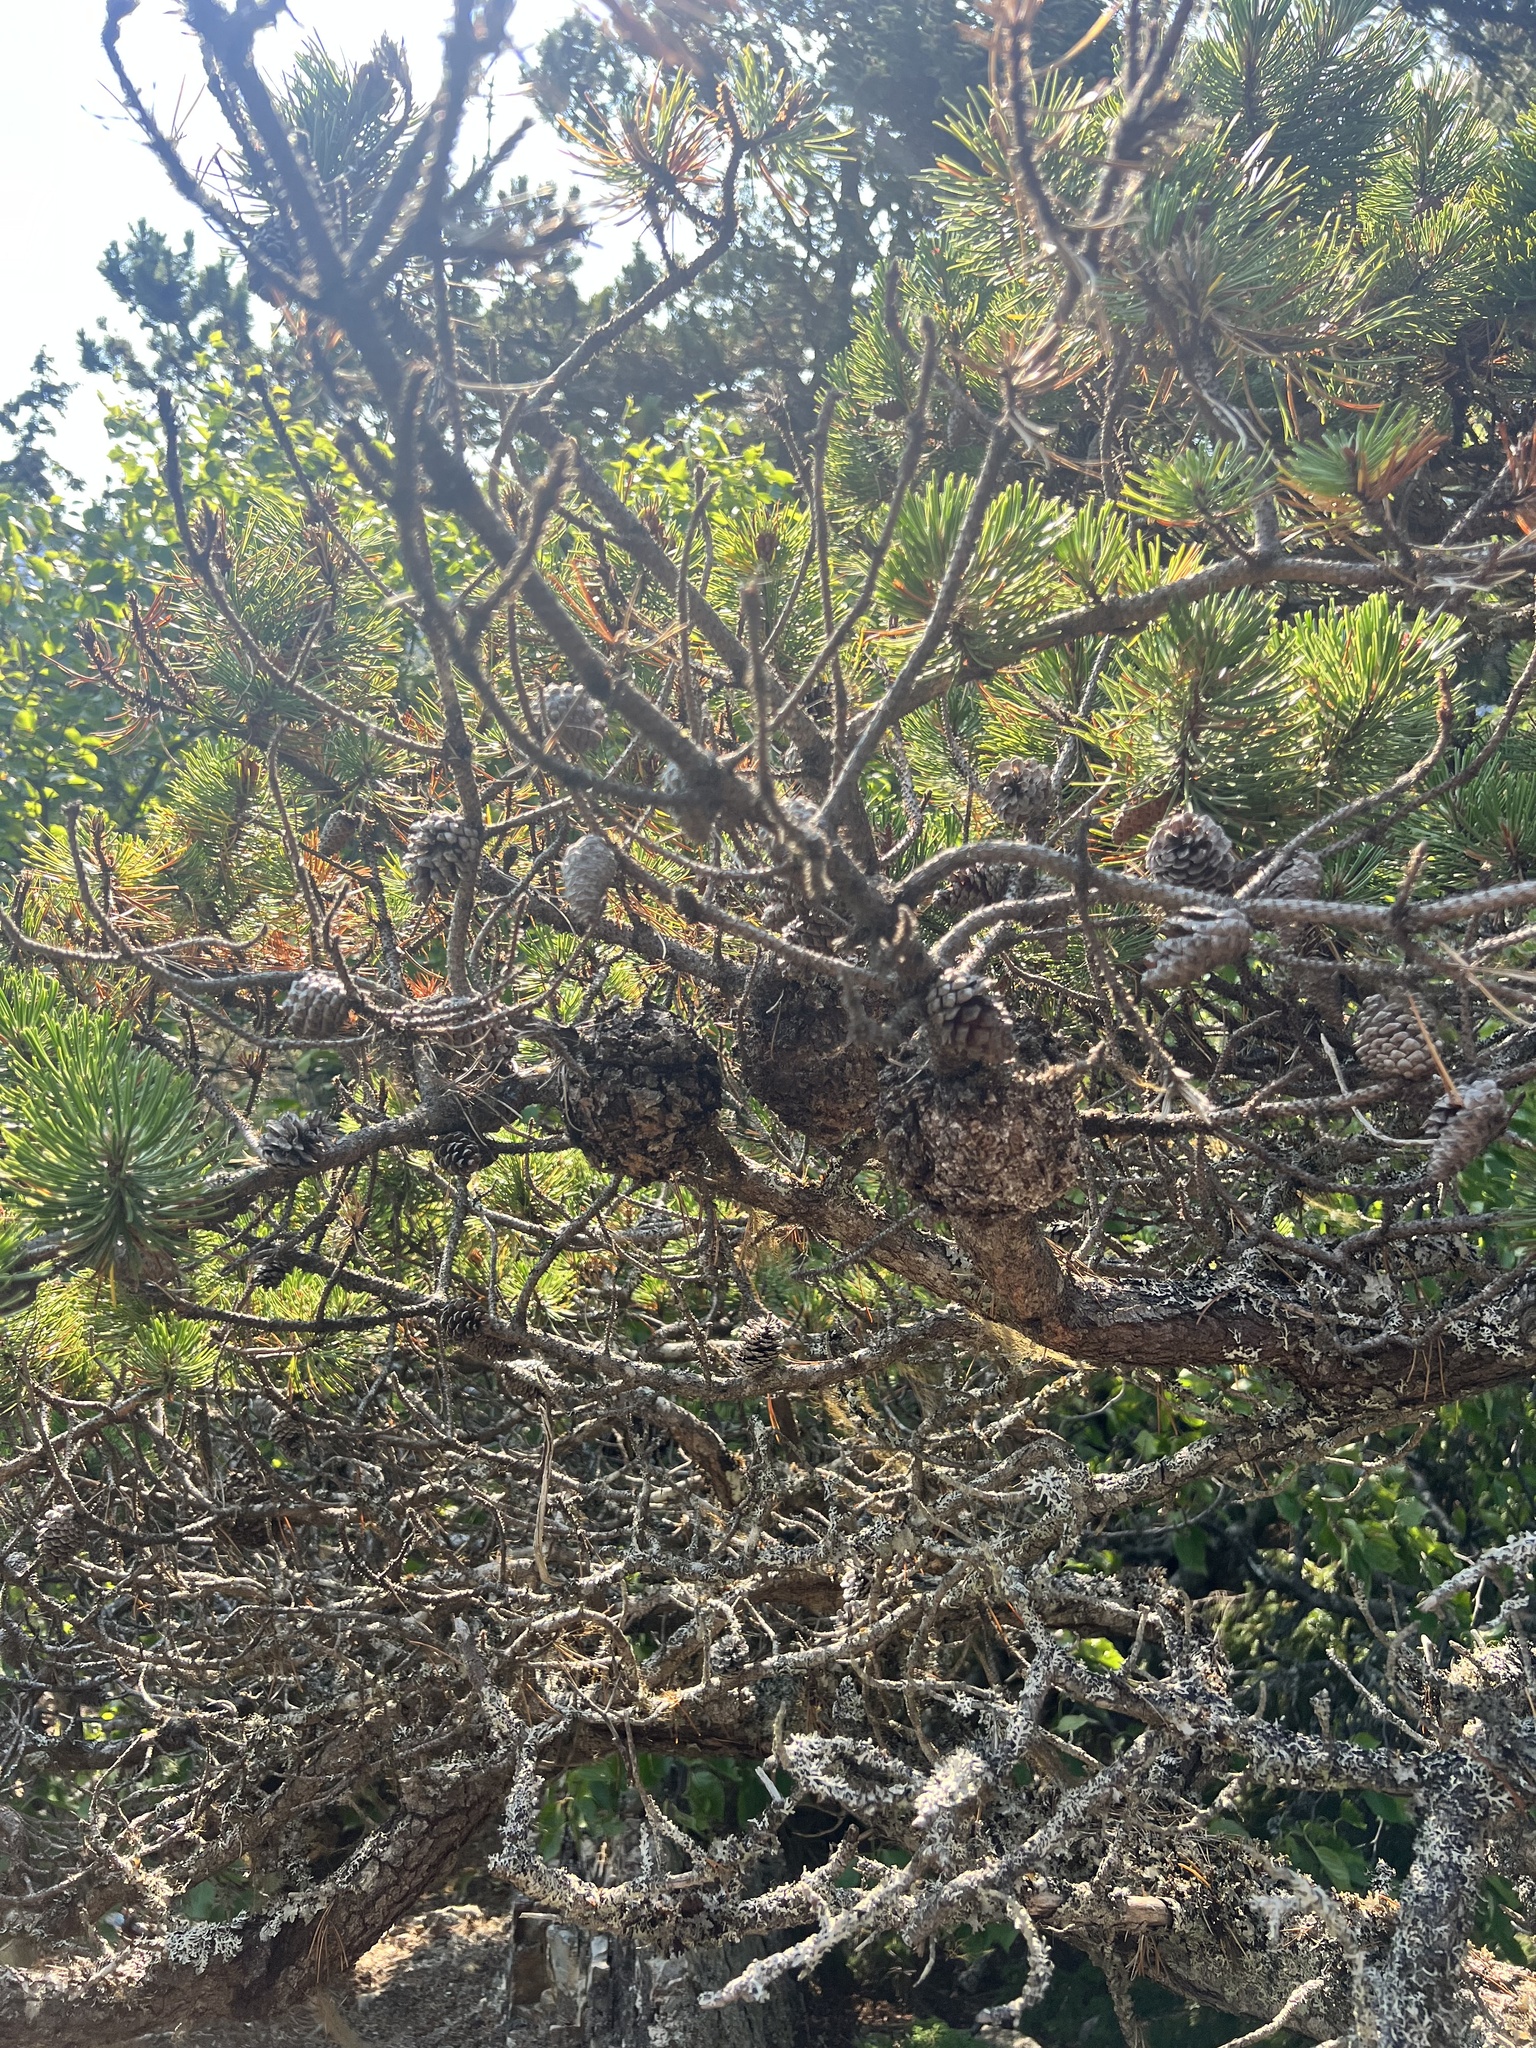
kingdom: Fungi
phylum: Basidiomycota
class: Pucciniomycetes
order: Pucciniales
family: Cronartiaceae
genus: Cronartium
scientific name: Cronartium harknessii
